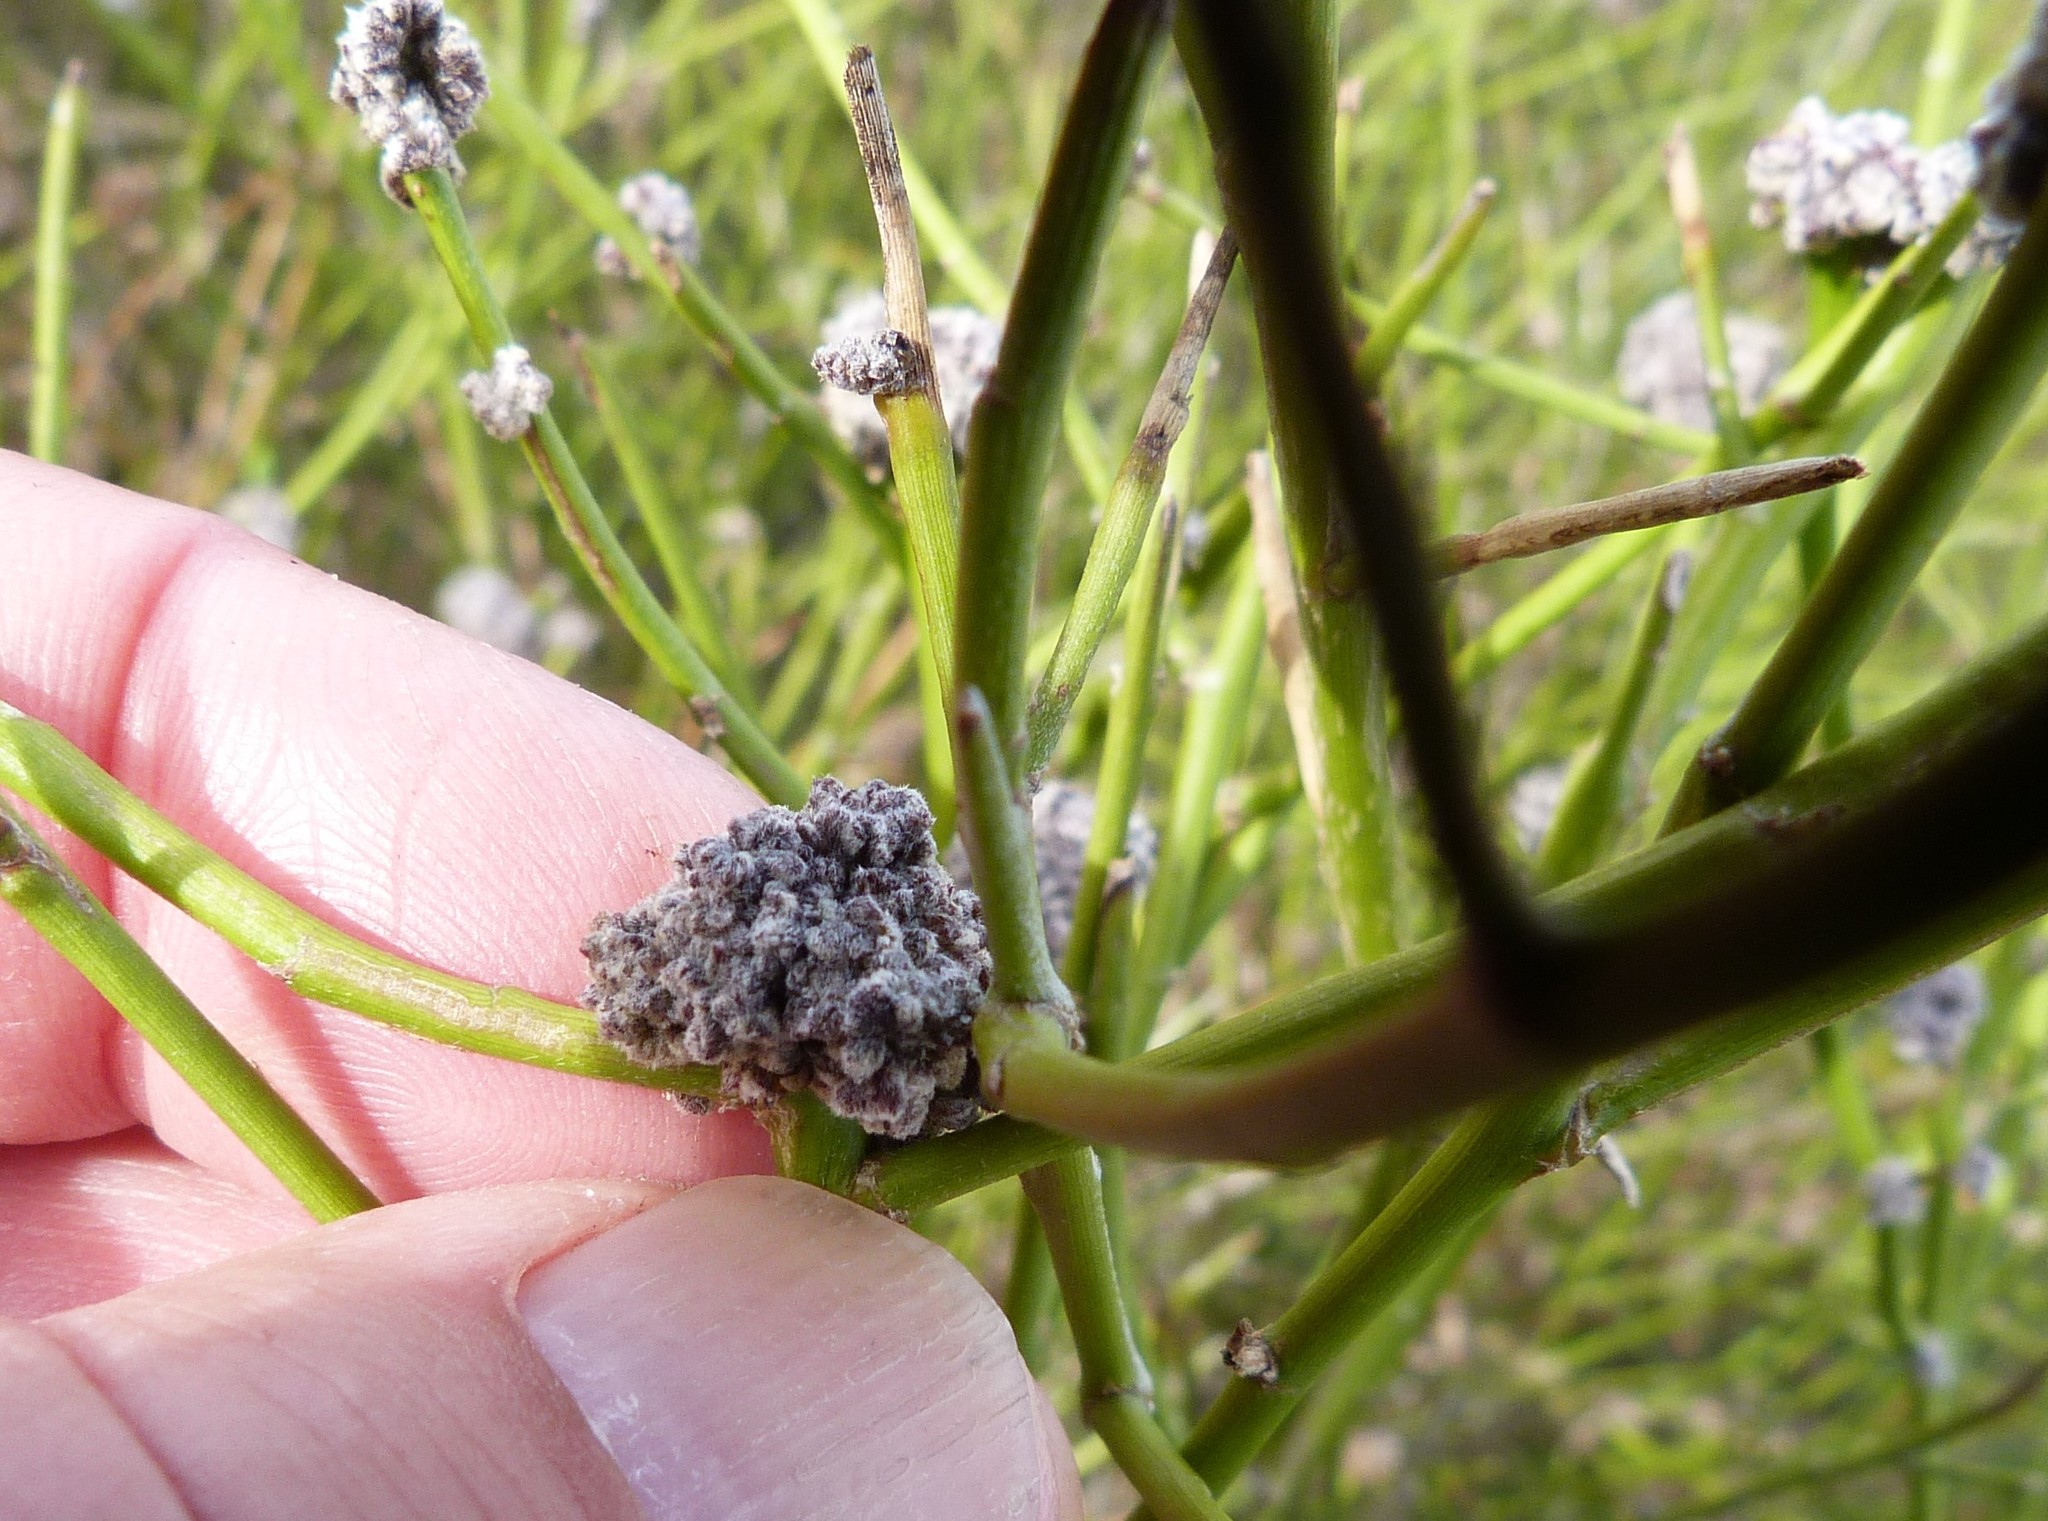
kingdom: Animalia
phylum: Arthropoda
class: Arachnida
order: Trombidiformes
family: Eriophyidae
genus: Aceria
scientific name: Aceria carmichaeliae
